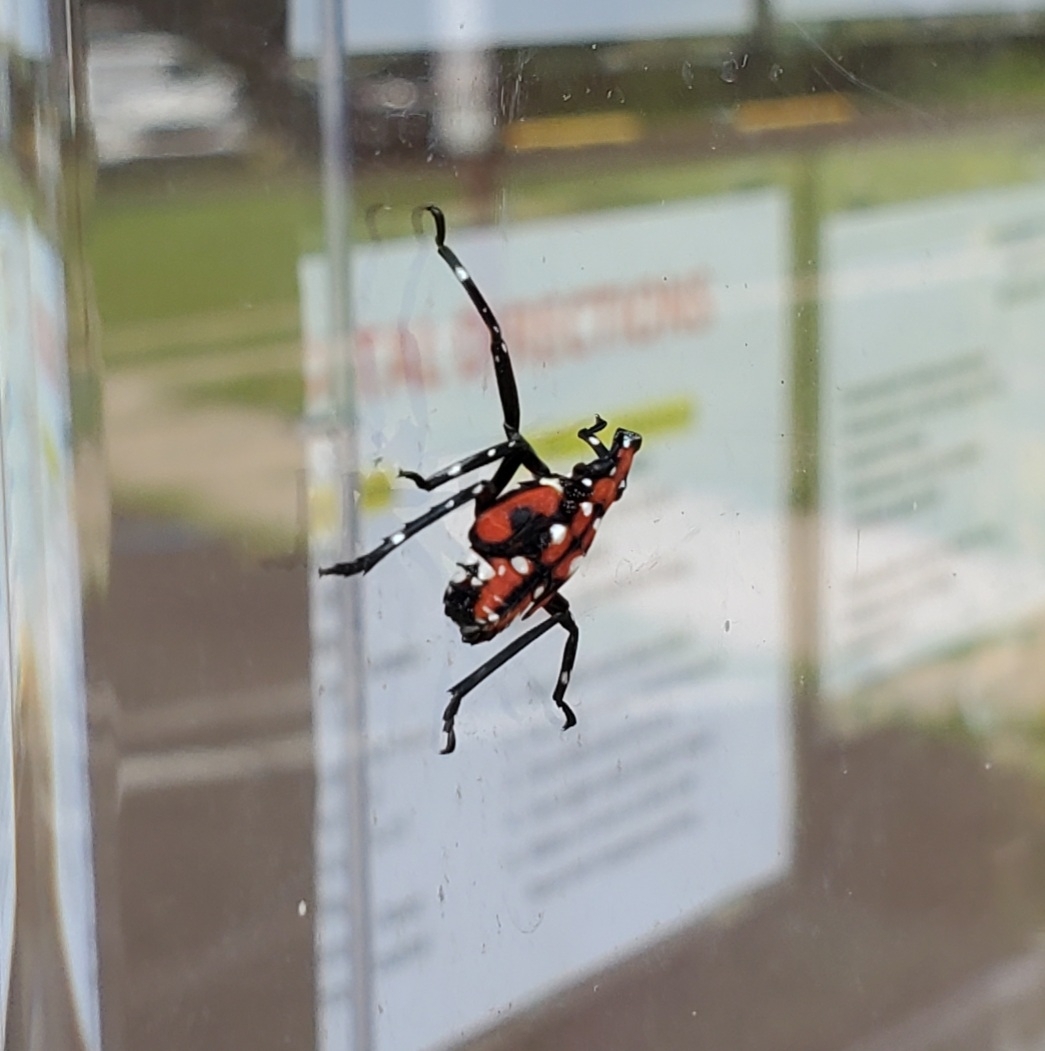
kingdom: Animalia
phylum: Arthropoda
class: Insecta
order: Hemiptera
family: Fulgoridae
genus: Lycorma
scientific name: Lycorma delicatula
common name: Spotted lanternfly
